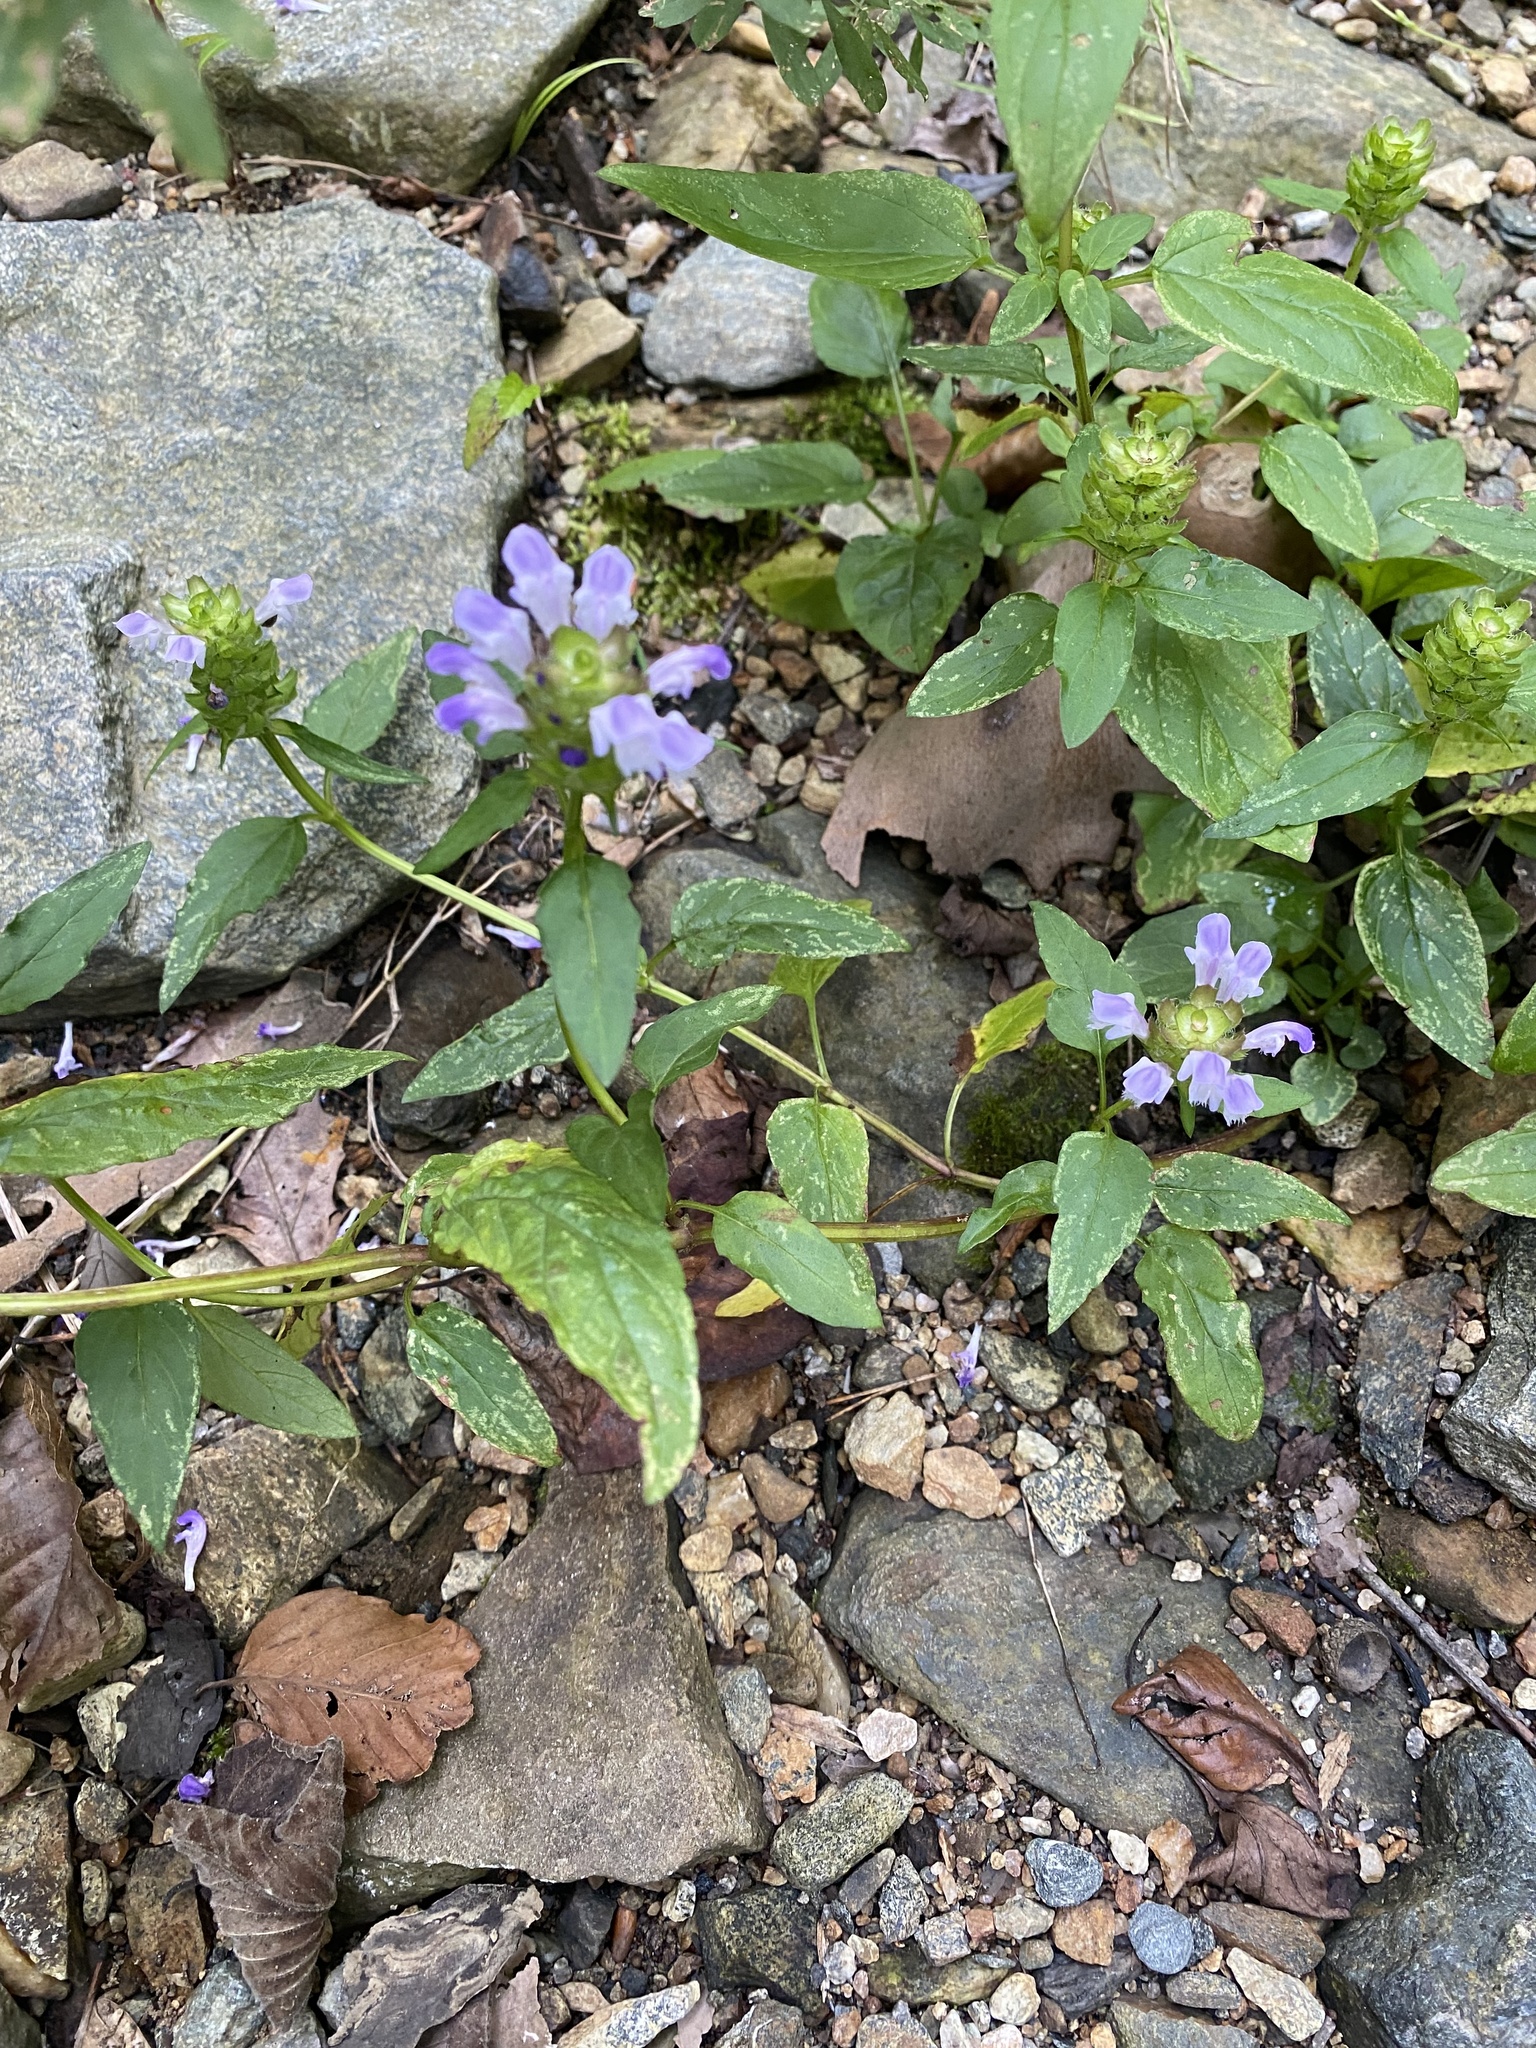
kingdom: Plantae
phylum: Tracheophyta
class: Magnoliopsida
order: Lamiales
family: Lamiaceae
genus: Prunella
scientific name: Prunella vulgaris
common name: Heal-all
